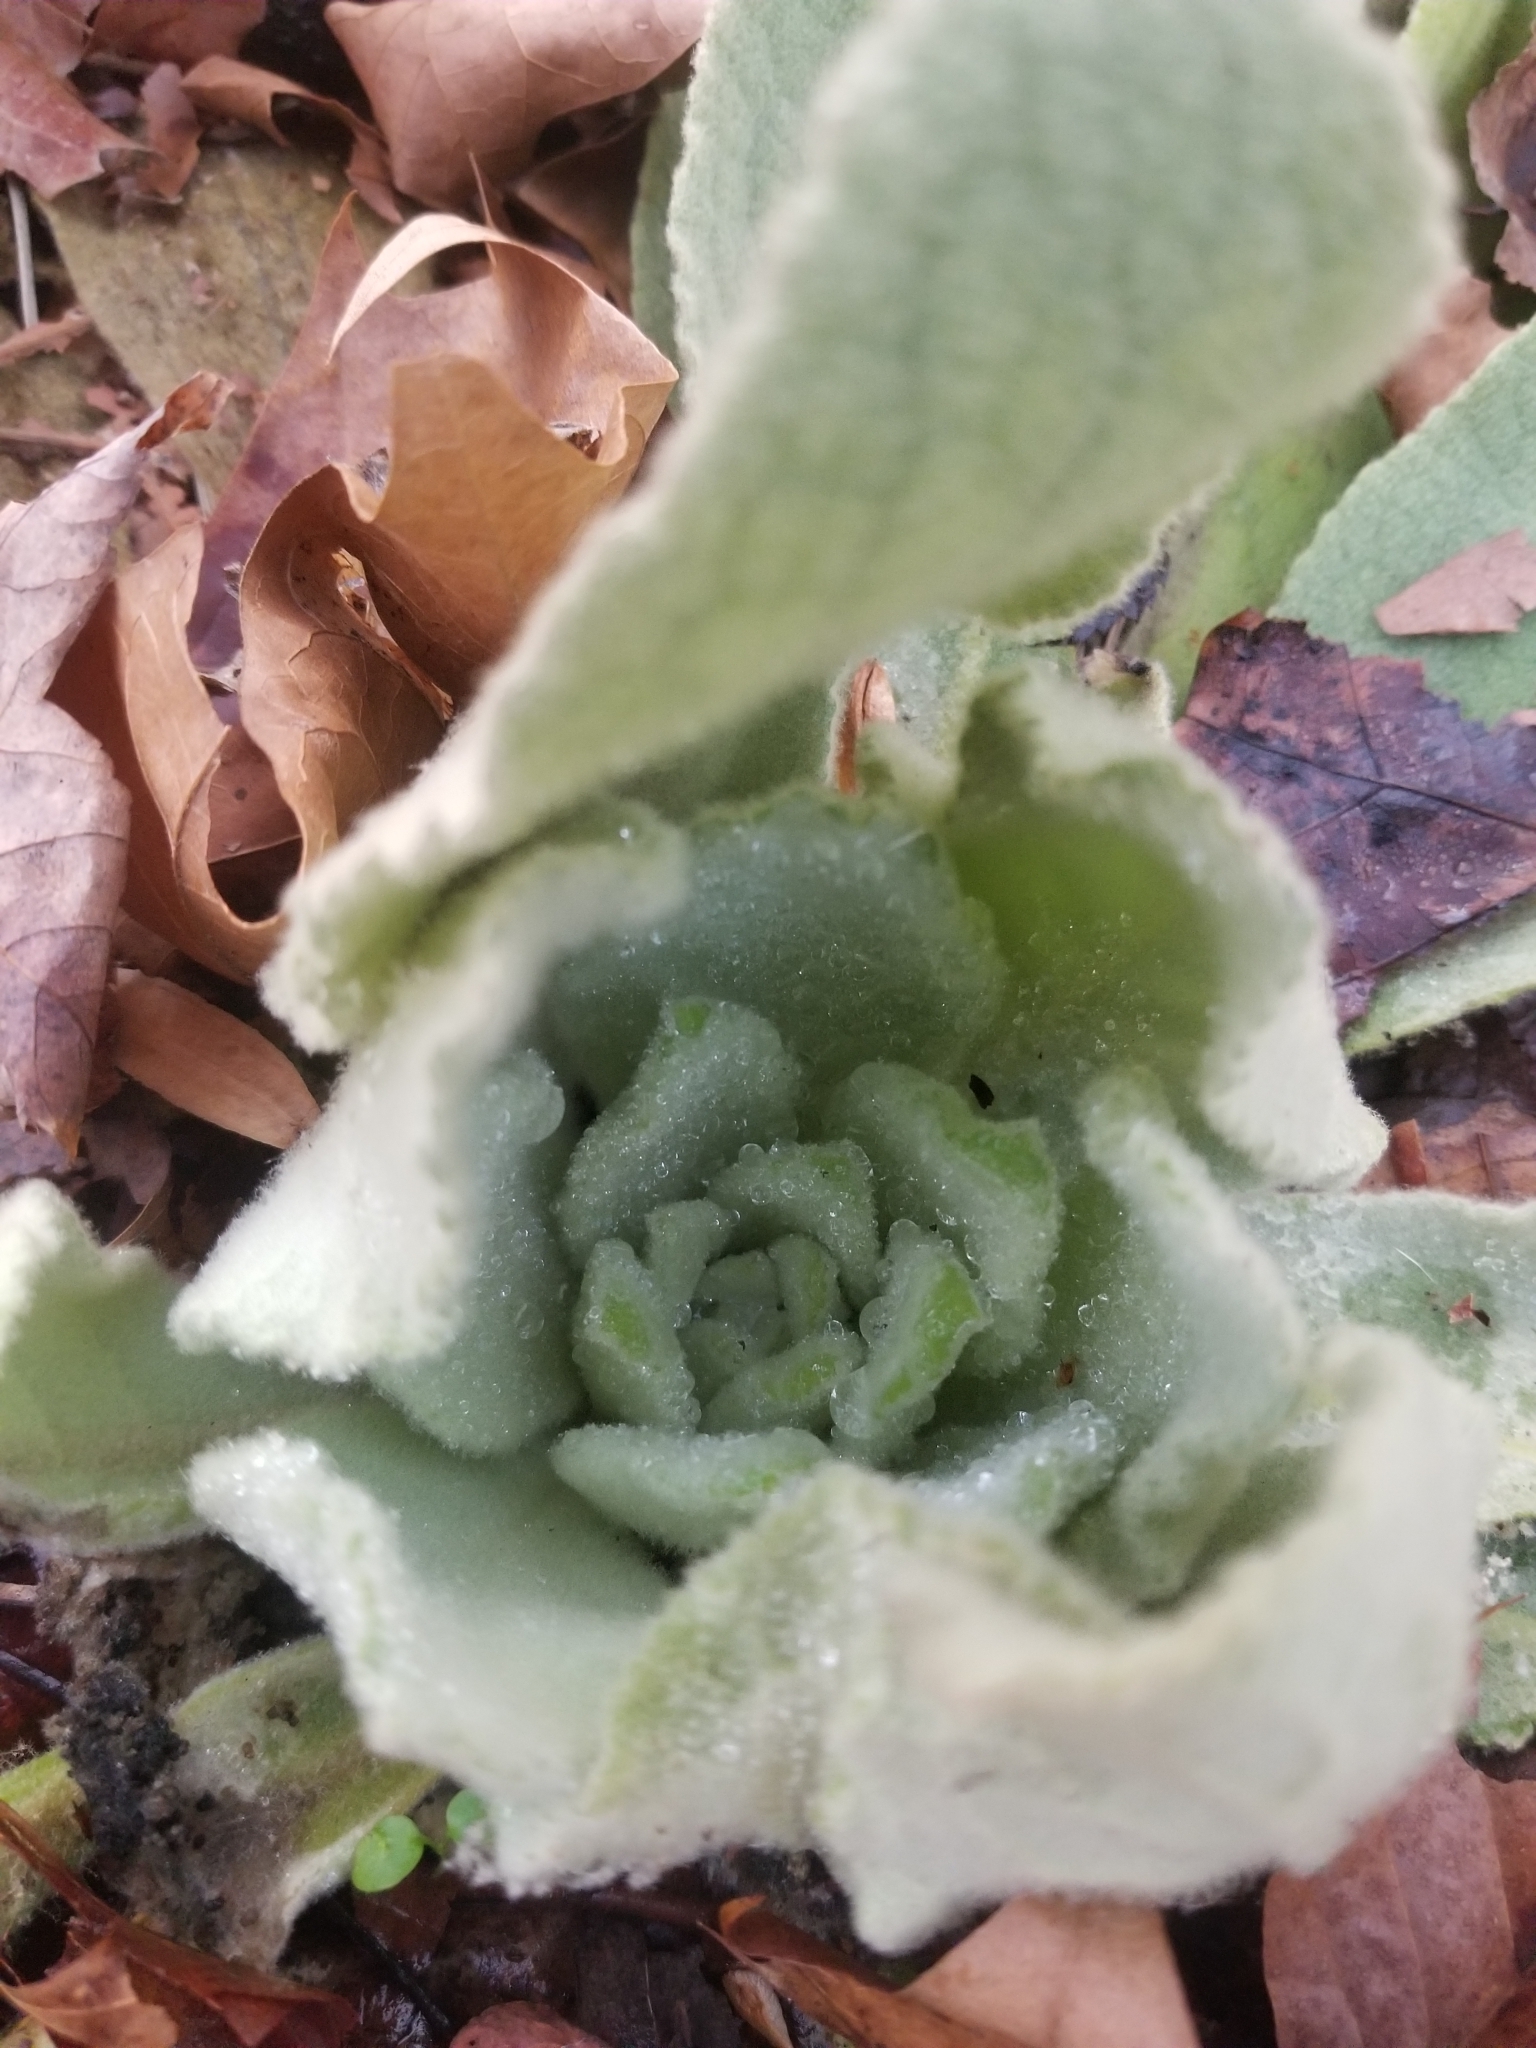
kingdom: Plantae
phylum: Tracheophyta
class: Magnoliopsida
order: Lamiales
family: Scrophulariaceae
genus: Verbascum
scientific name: Verbascum thapsus
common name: Common mullein
